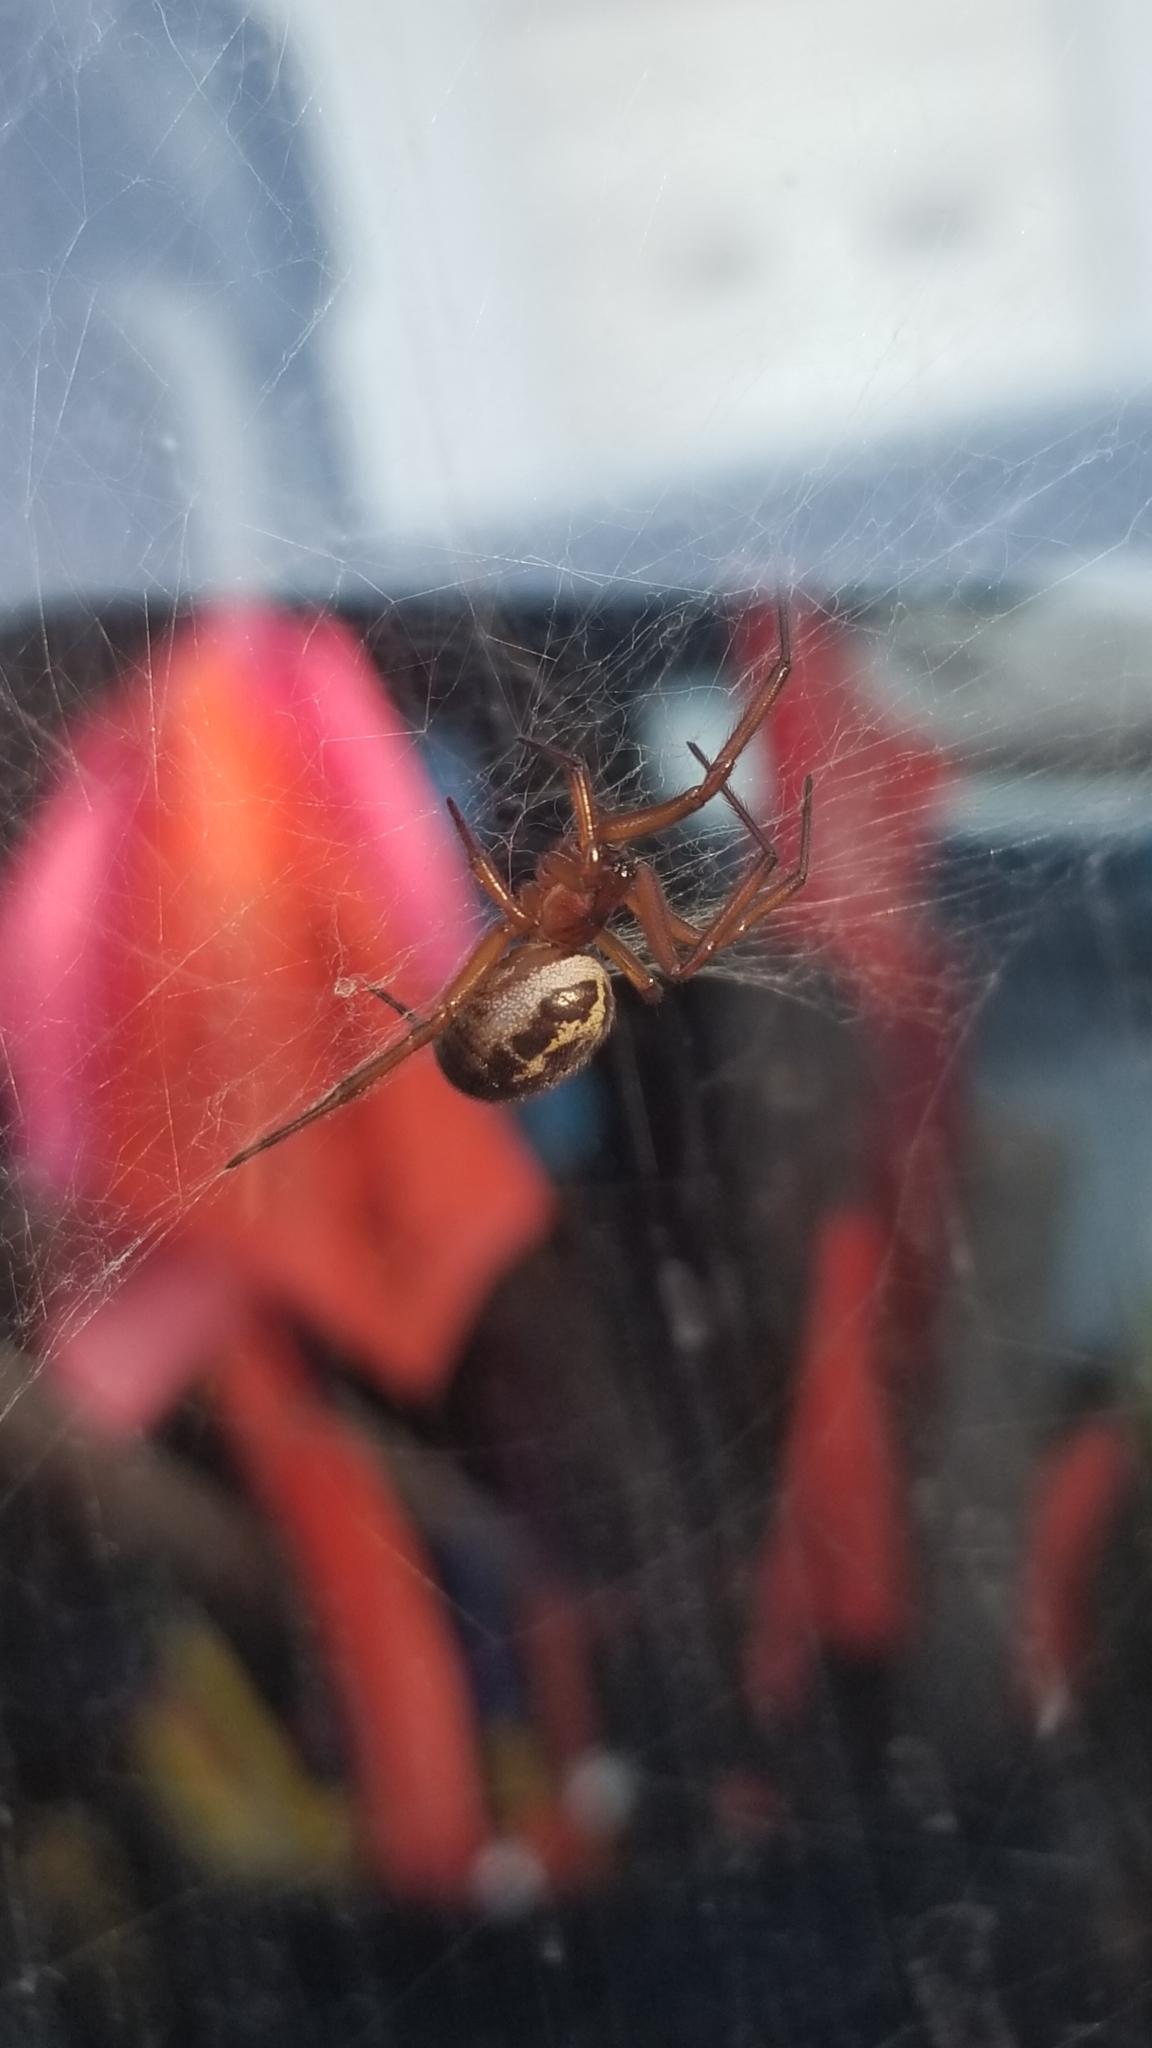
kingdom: Animalia
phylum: Arthropoda
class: Arachnida
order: Araneae
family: Theridiidae
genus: Steatoda
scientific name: Steatoda nobilis
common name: Cobweb weaver
